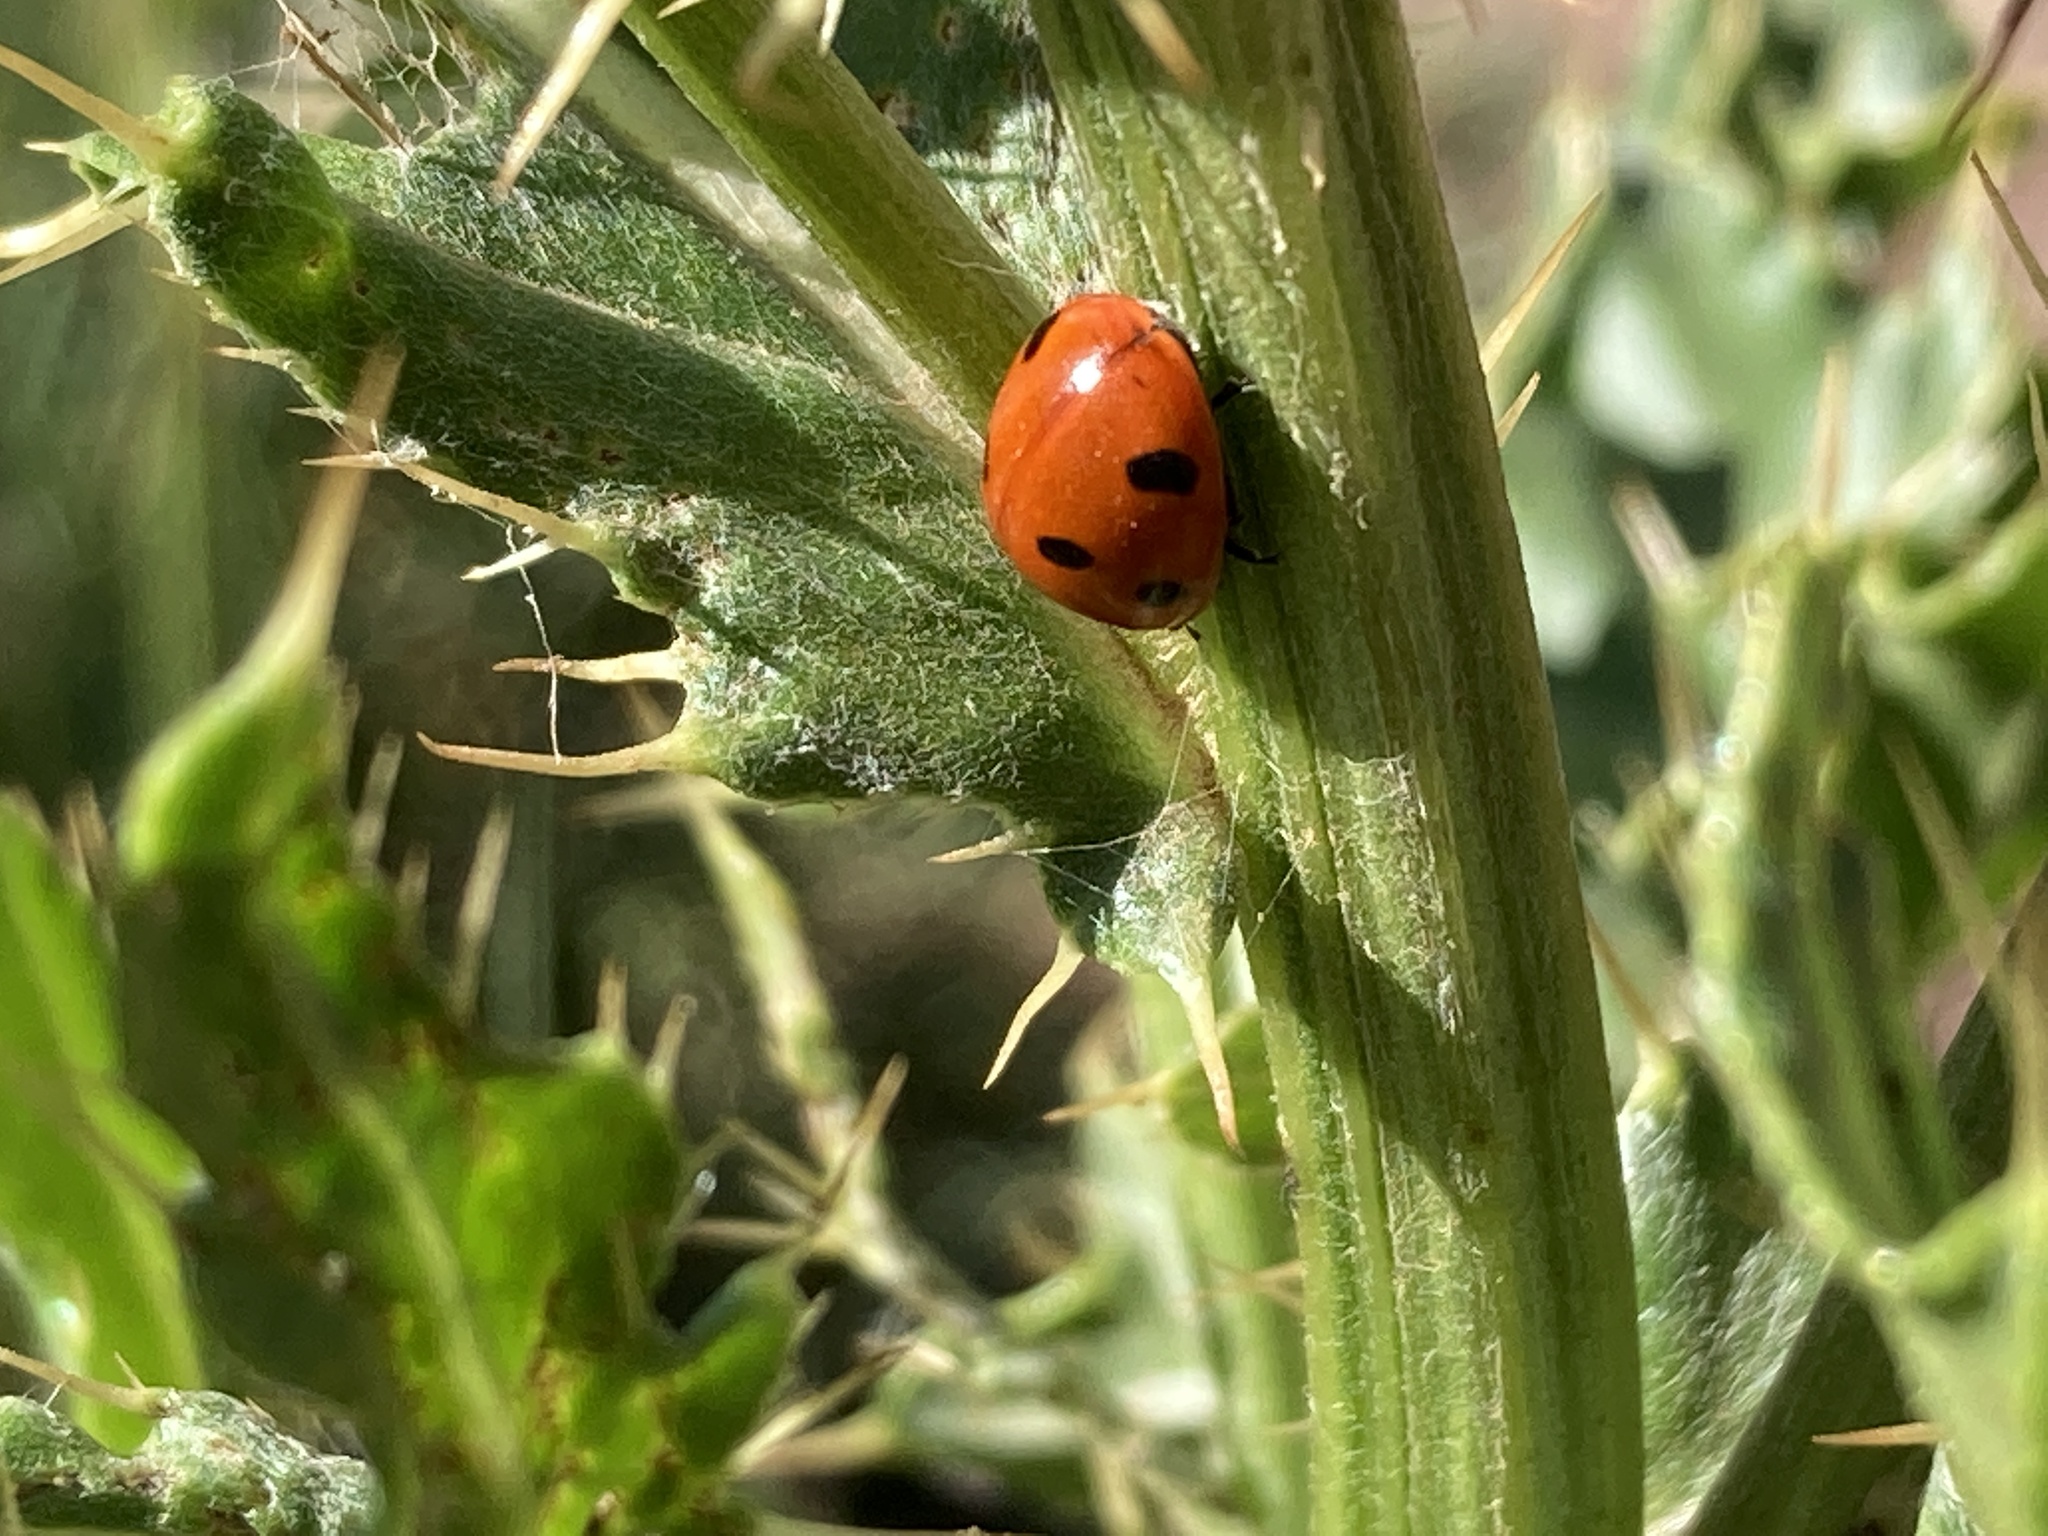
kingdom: Animalia
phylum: Arthropoda
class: Insecta
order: Coleoptera
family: Coccinellidae
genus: Coccinella
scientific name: Coccinella septempunctata
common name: Sevenspotted lady beetle
